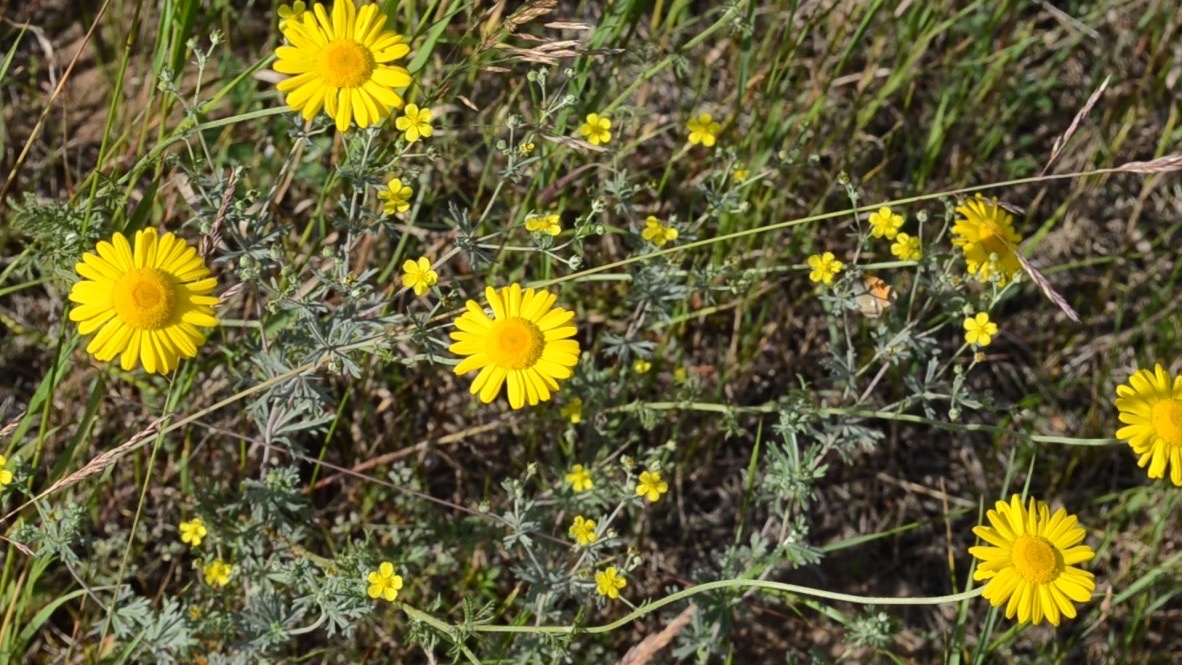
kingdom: Plantae
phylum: Tracheophyta
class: Magnoliopsida
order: Asterales
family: Asteraceae
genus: Cota
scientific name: Cota tinctoria
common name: Golden chamomile
